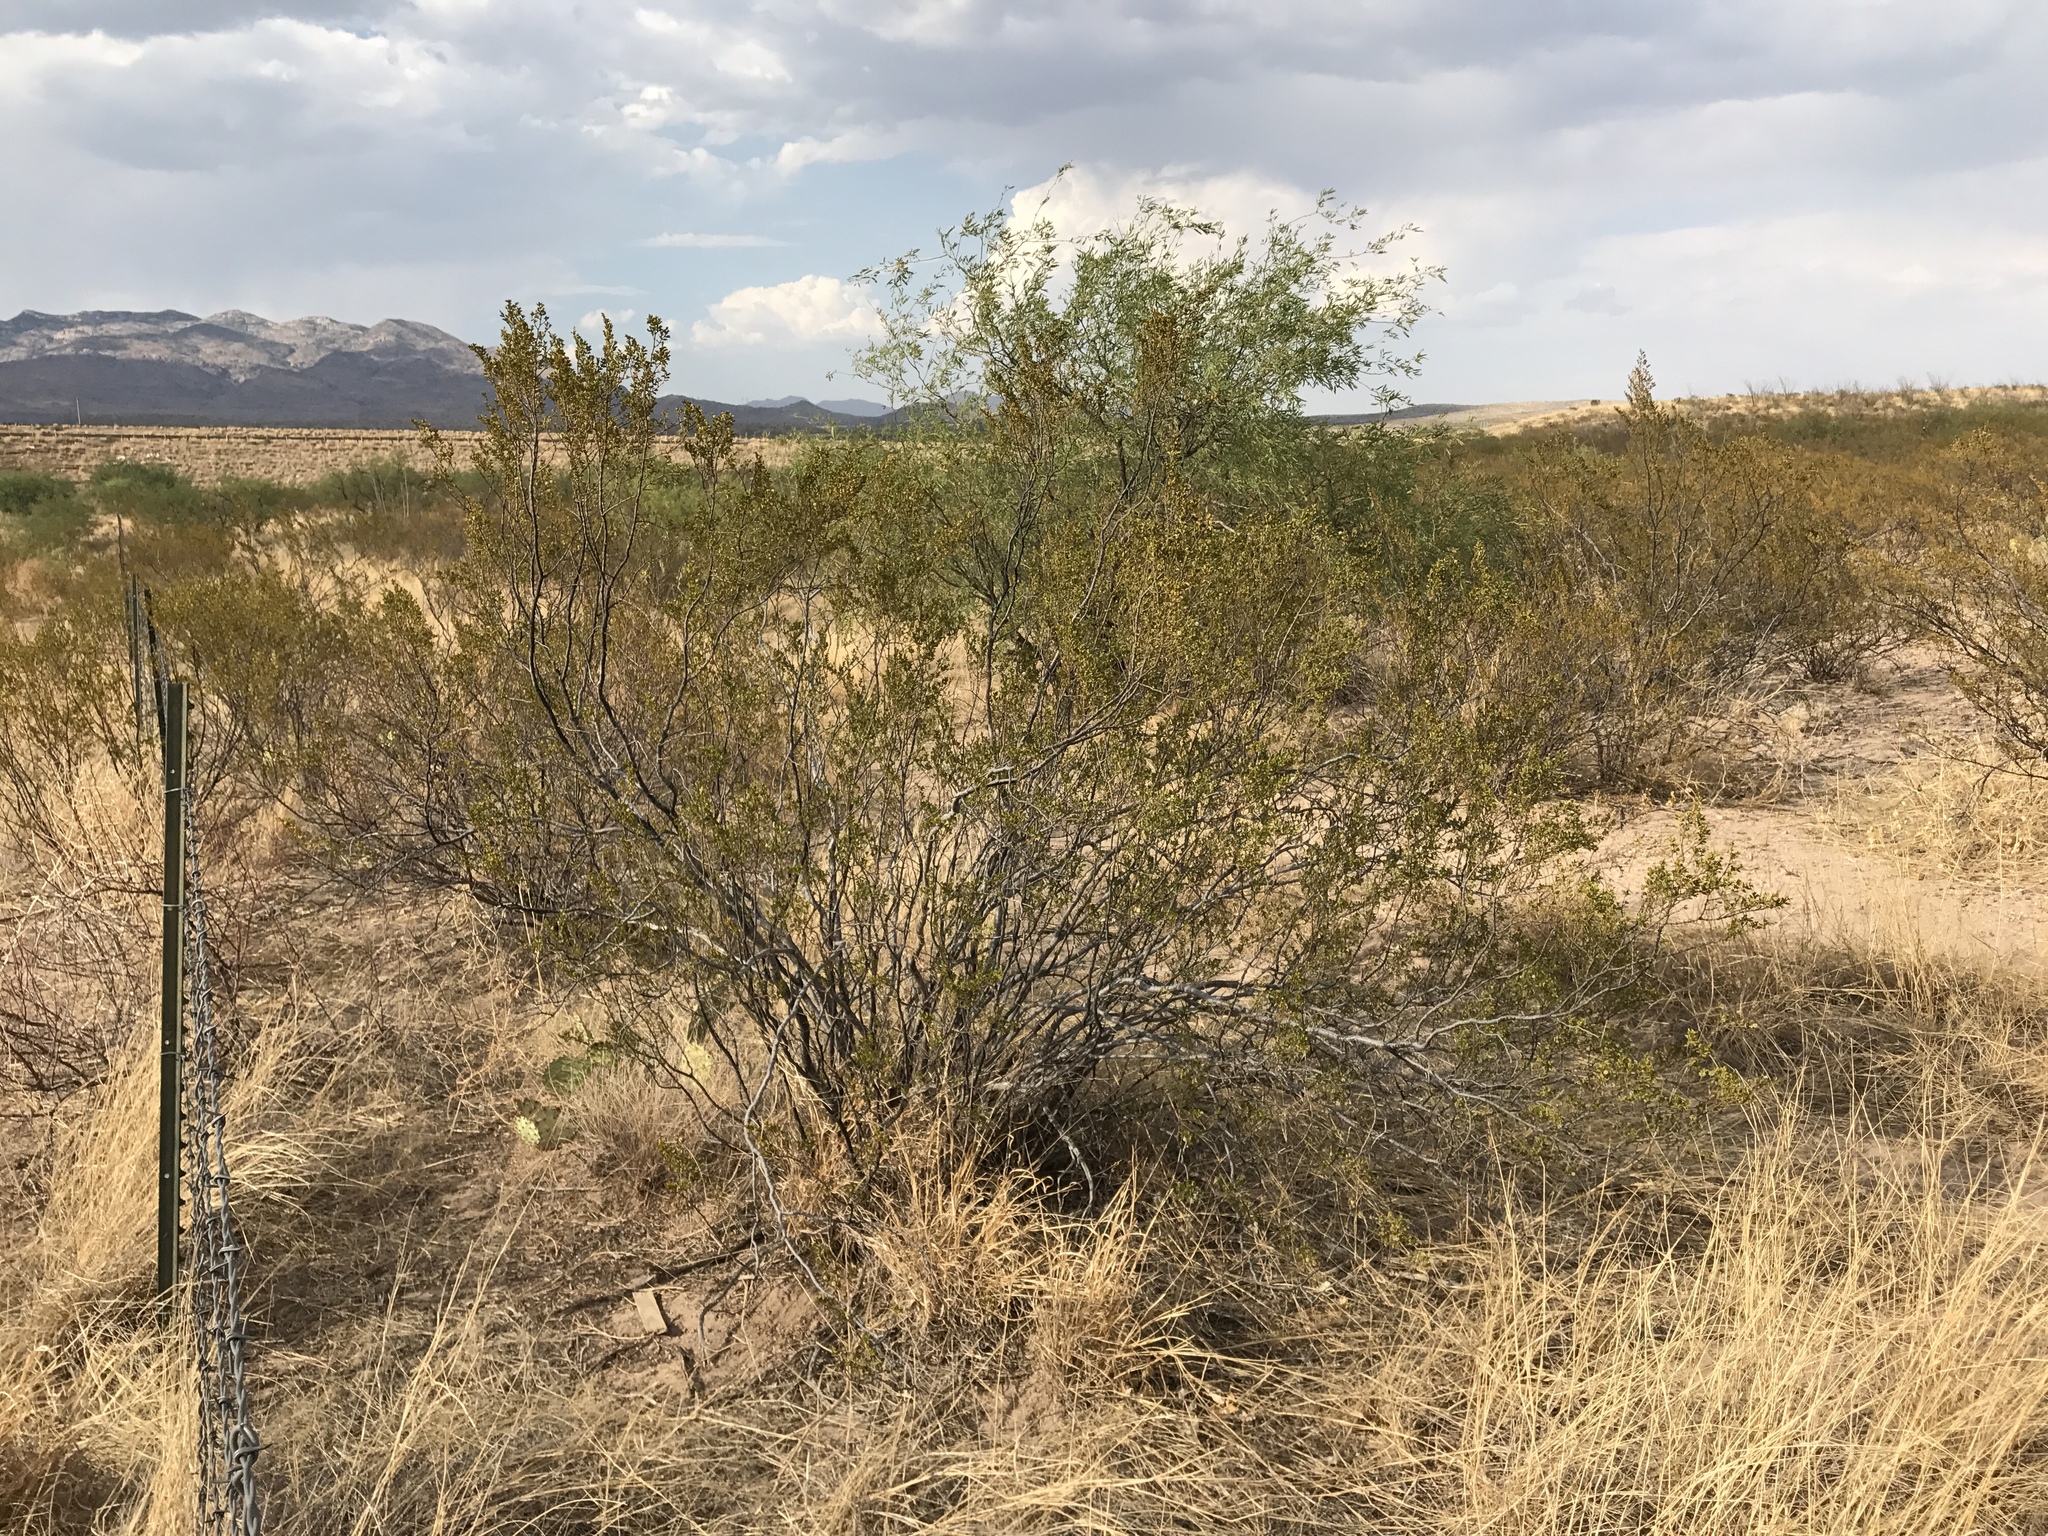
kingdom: Plantae
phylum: Tracheophyta
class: Magnoliopsida
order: Zygophyllales
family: Zygophyllaceae
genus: Larrea
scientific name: Larrea tridentata
